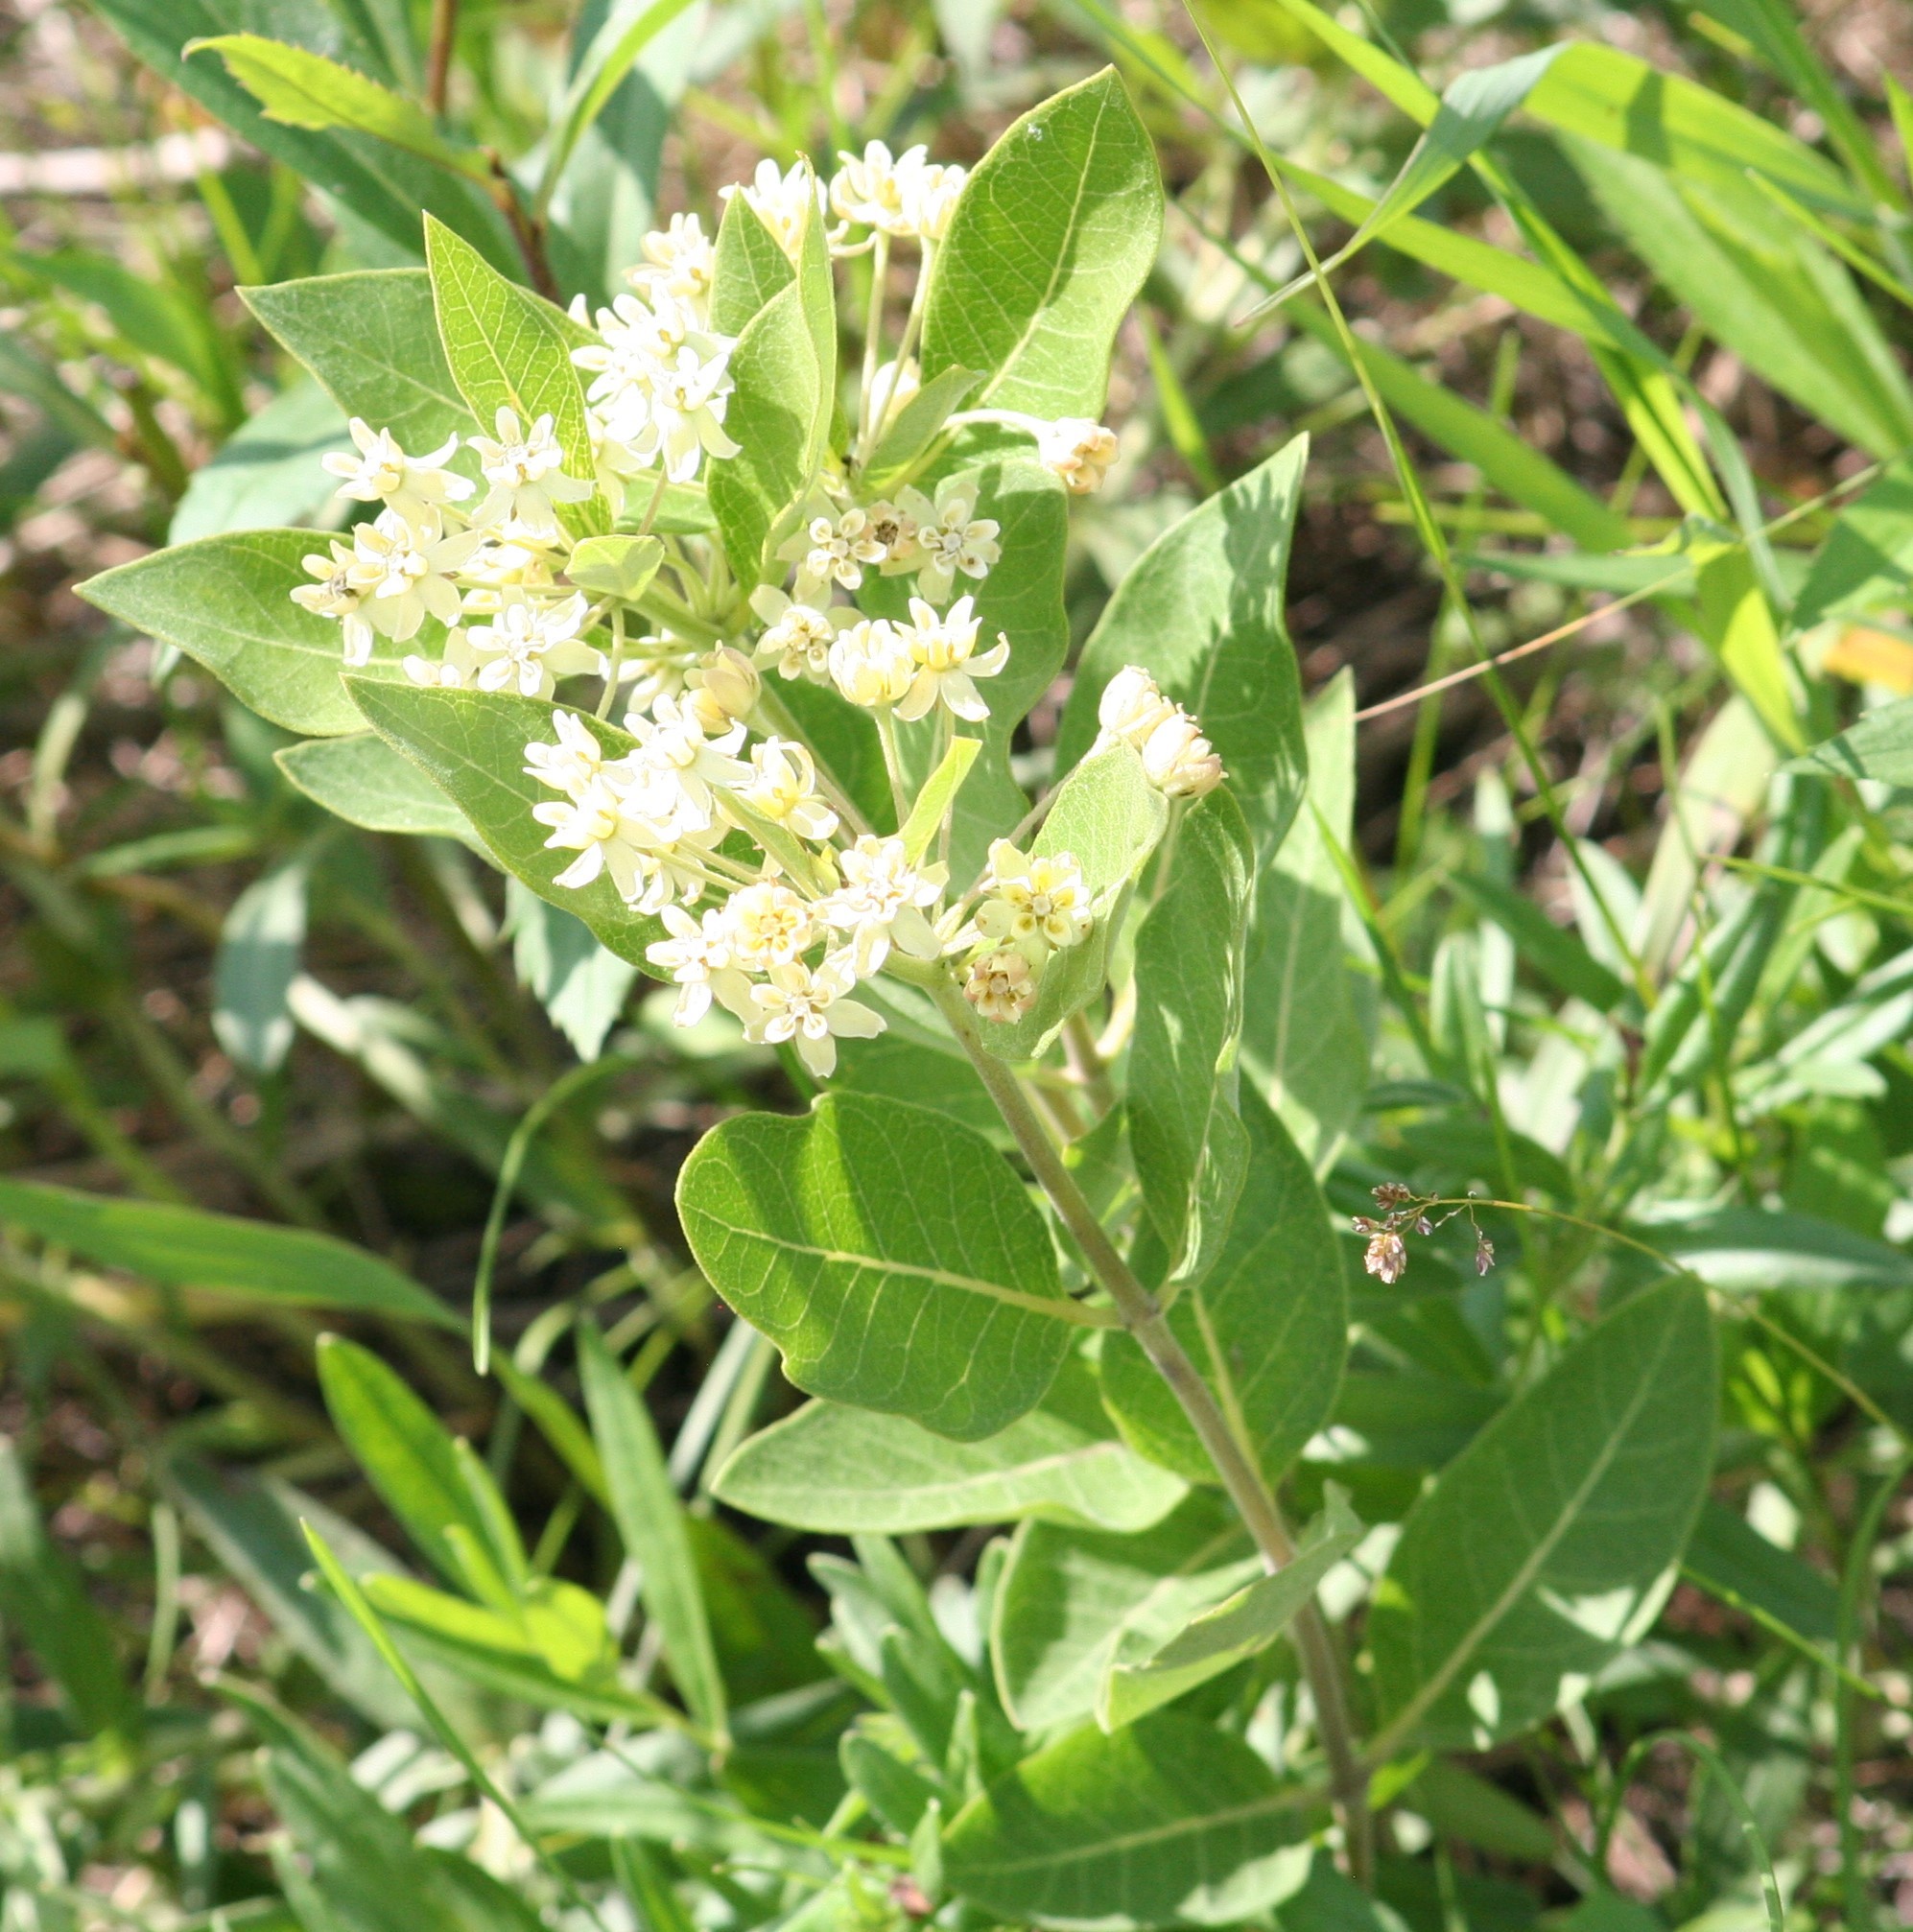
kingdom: Plantae
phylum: Tracheophyta
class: Magnoliopsida
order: Gentianales
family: Apocynaceae
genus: Asclepias
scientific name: Asclepias ovalifolia
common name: Dwarf milkweed
